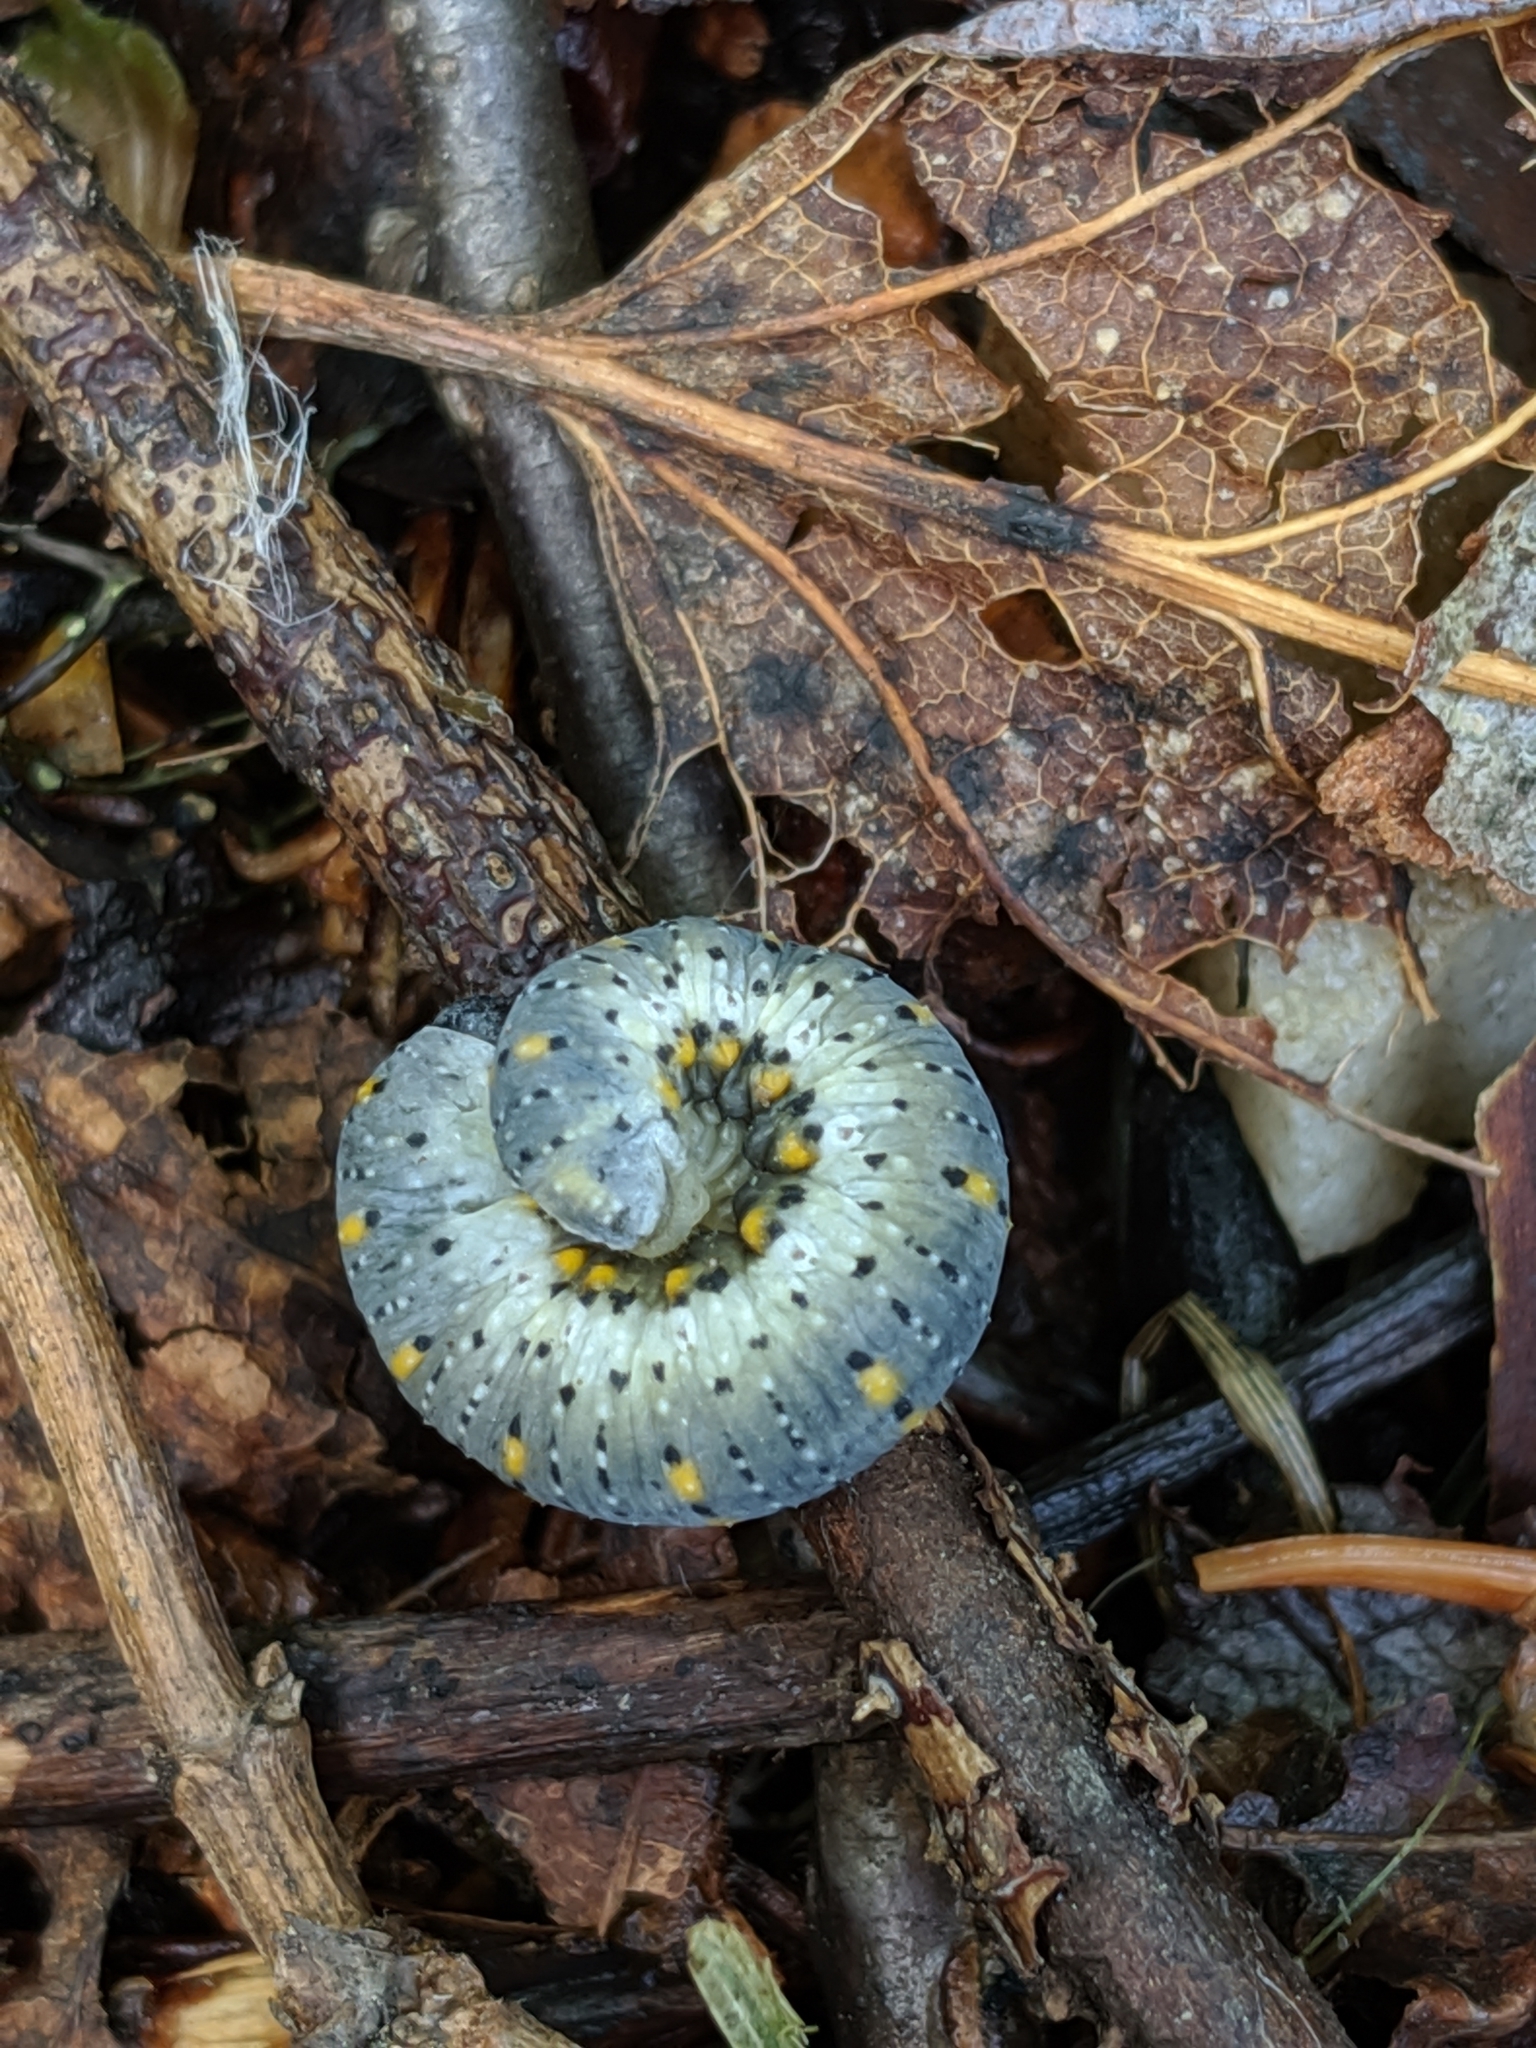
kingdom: Animalia
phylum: Arthropoda
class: Insecta
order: Hymenoptera
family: Cimbicidae
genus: Abia
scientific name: Abia americana
